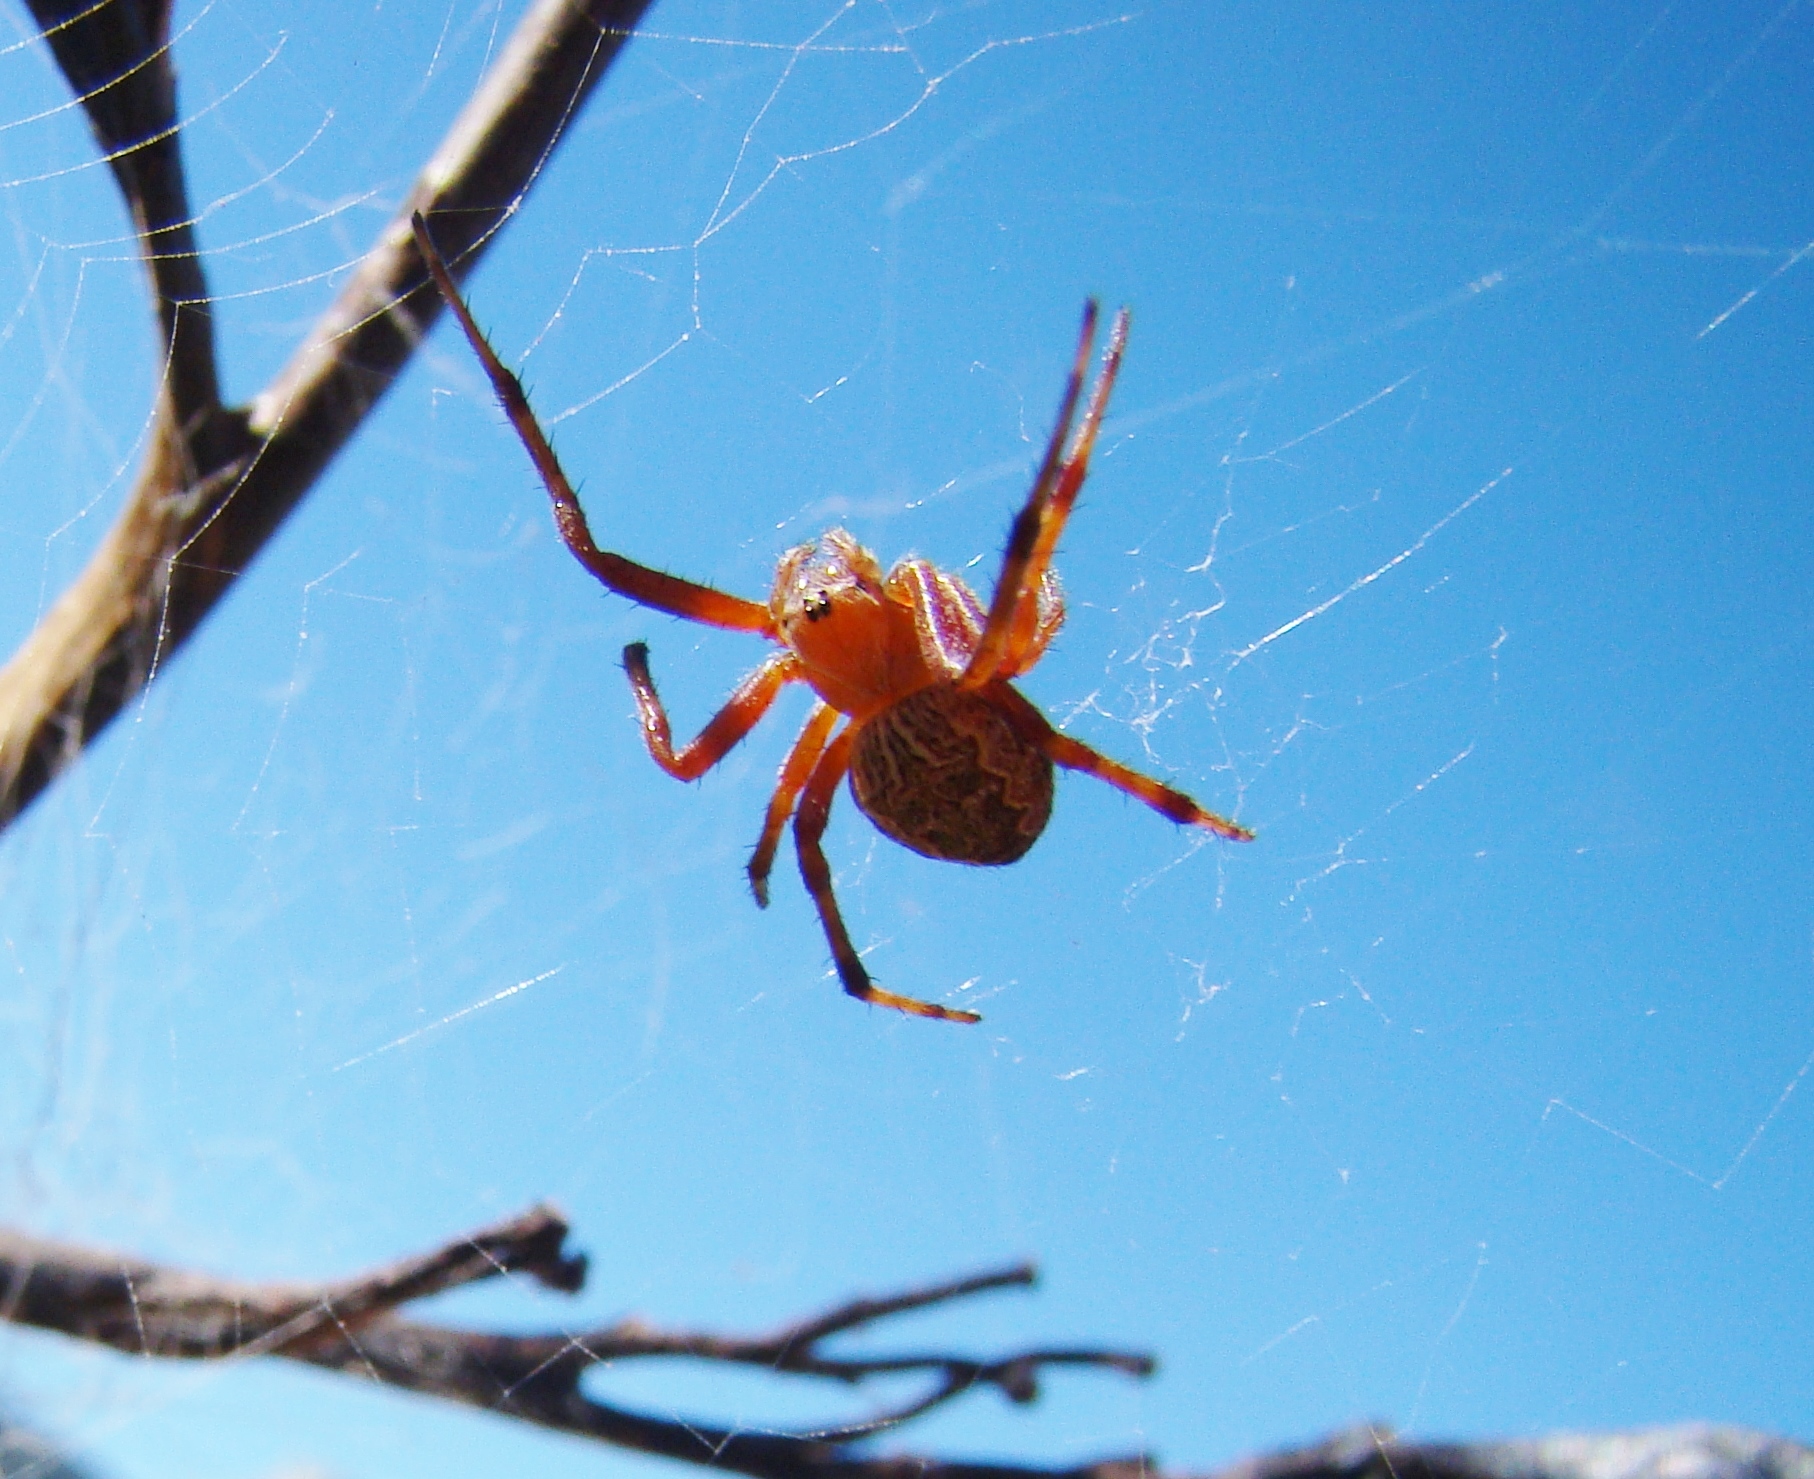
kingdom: Animalia
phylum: Arthropoda
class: Arachnida
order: Araneae
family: Araneidae
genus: Eriophora
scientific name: Eriophora pustulosa
